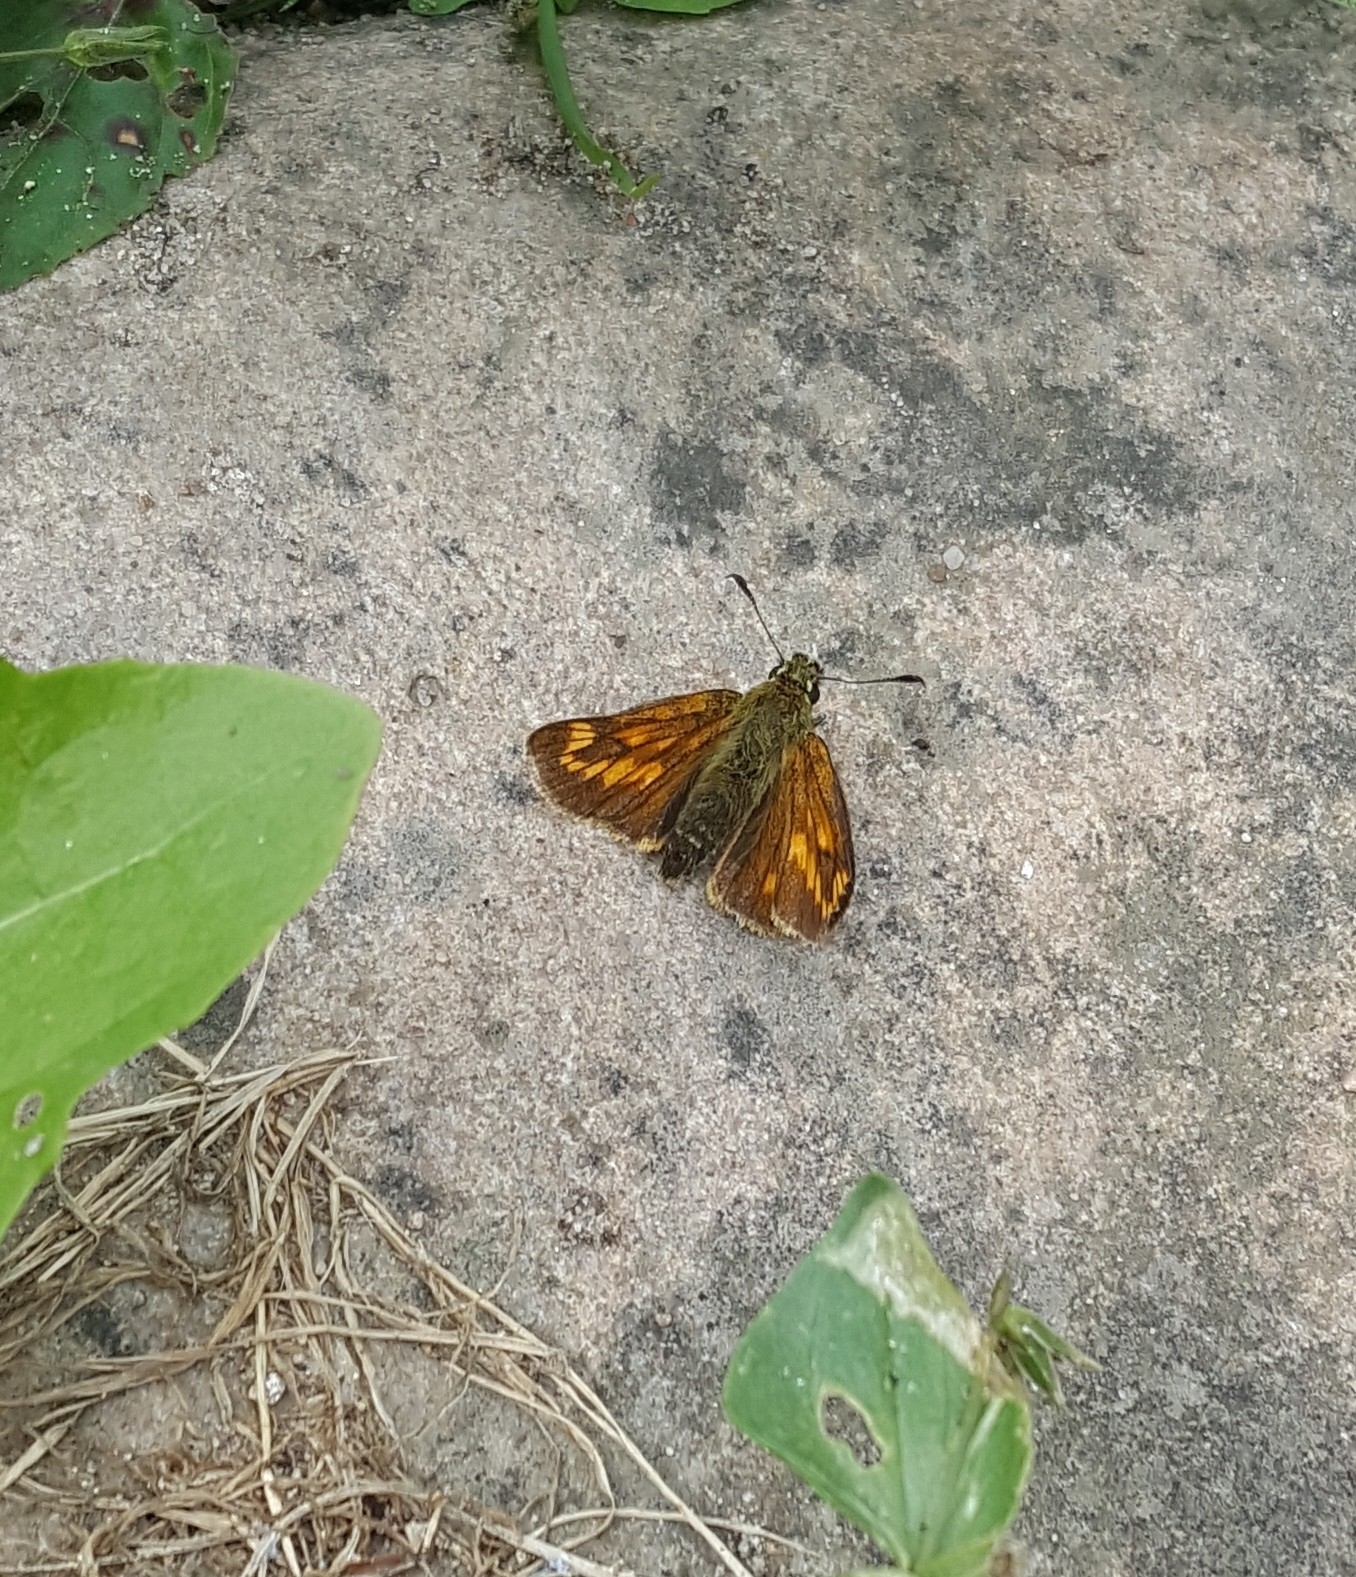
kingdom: Animalia
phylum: Arthropoda
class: Insecta
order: Lepidoptera
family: Hesperiidae
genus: Ochlodes
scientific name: Ochlodes venata
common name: Large skipper
